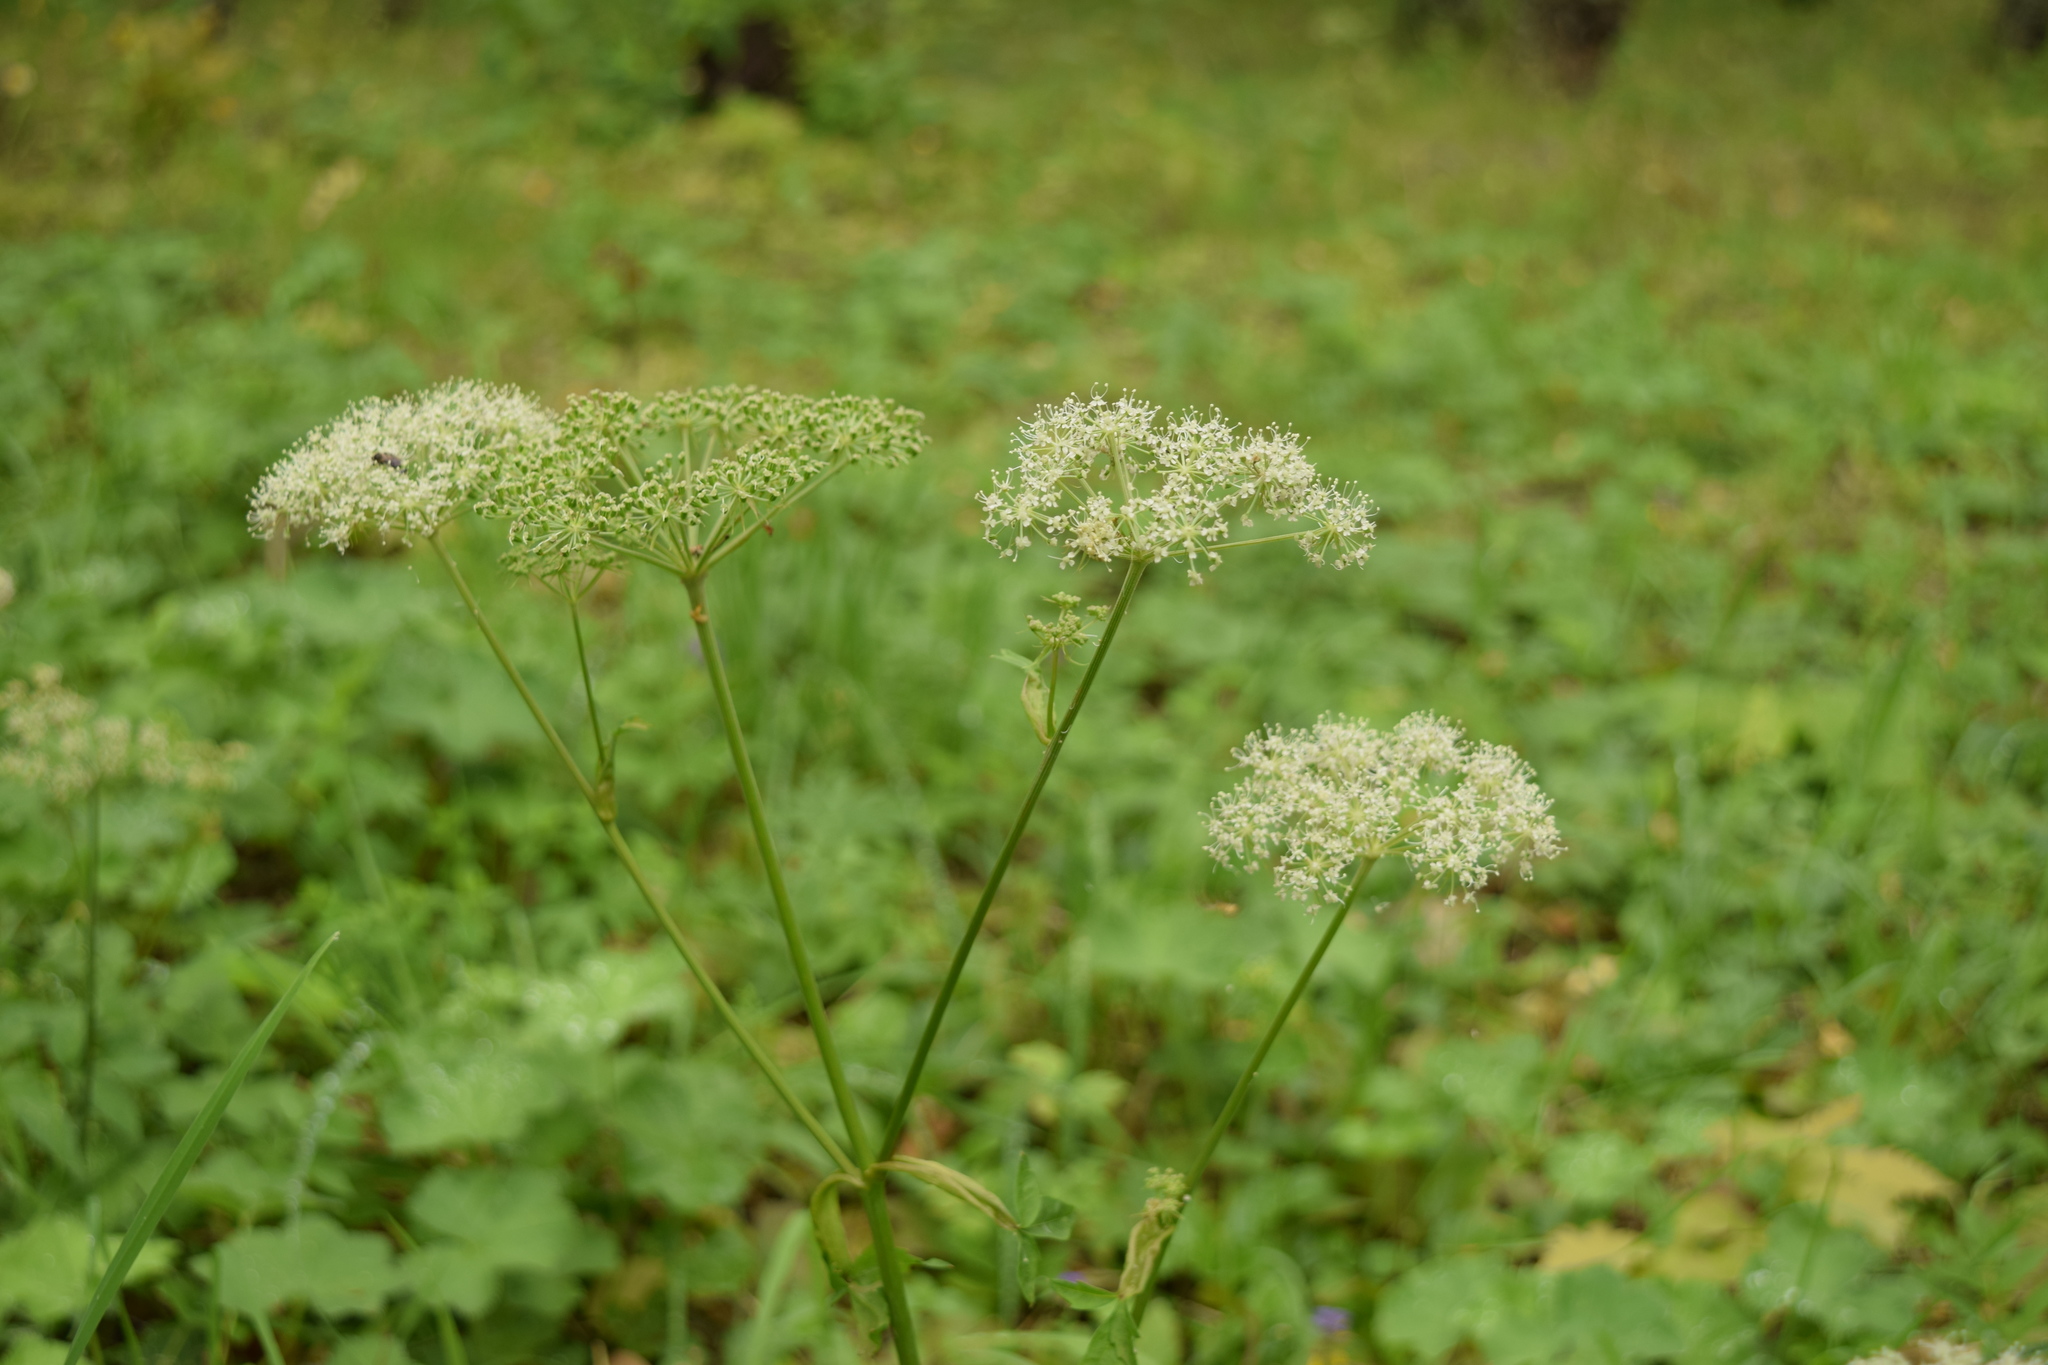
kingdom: Plantae
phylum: Tracheophyta
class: Magnoliopsida
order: Apiales
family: Apiaceae
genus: Pimpinella
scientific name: Pimpinella saxifraga
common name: Burnet-saxifrage
